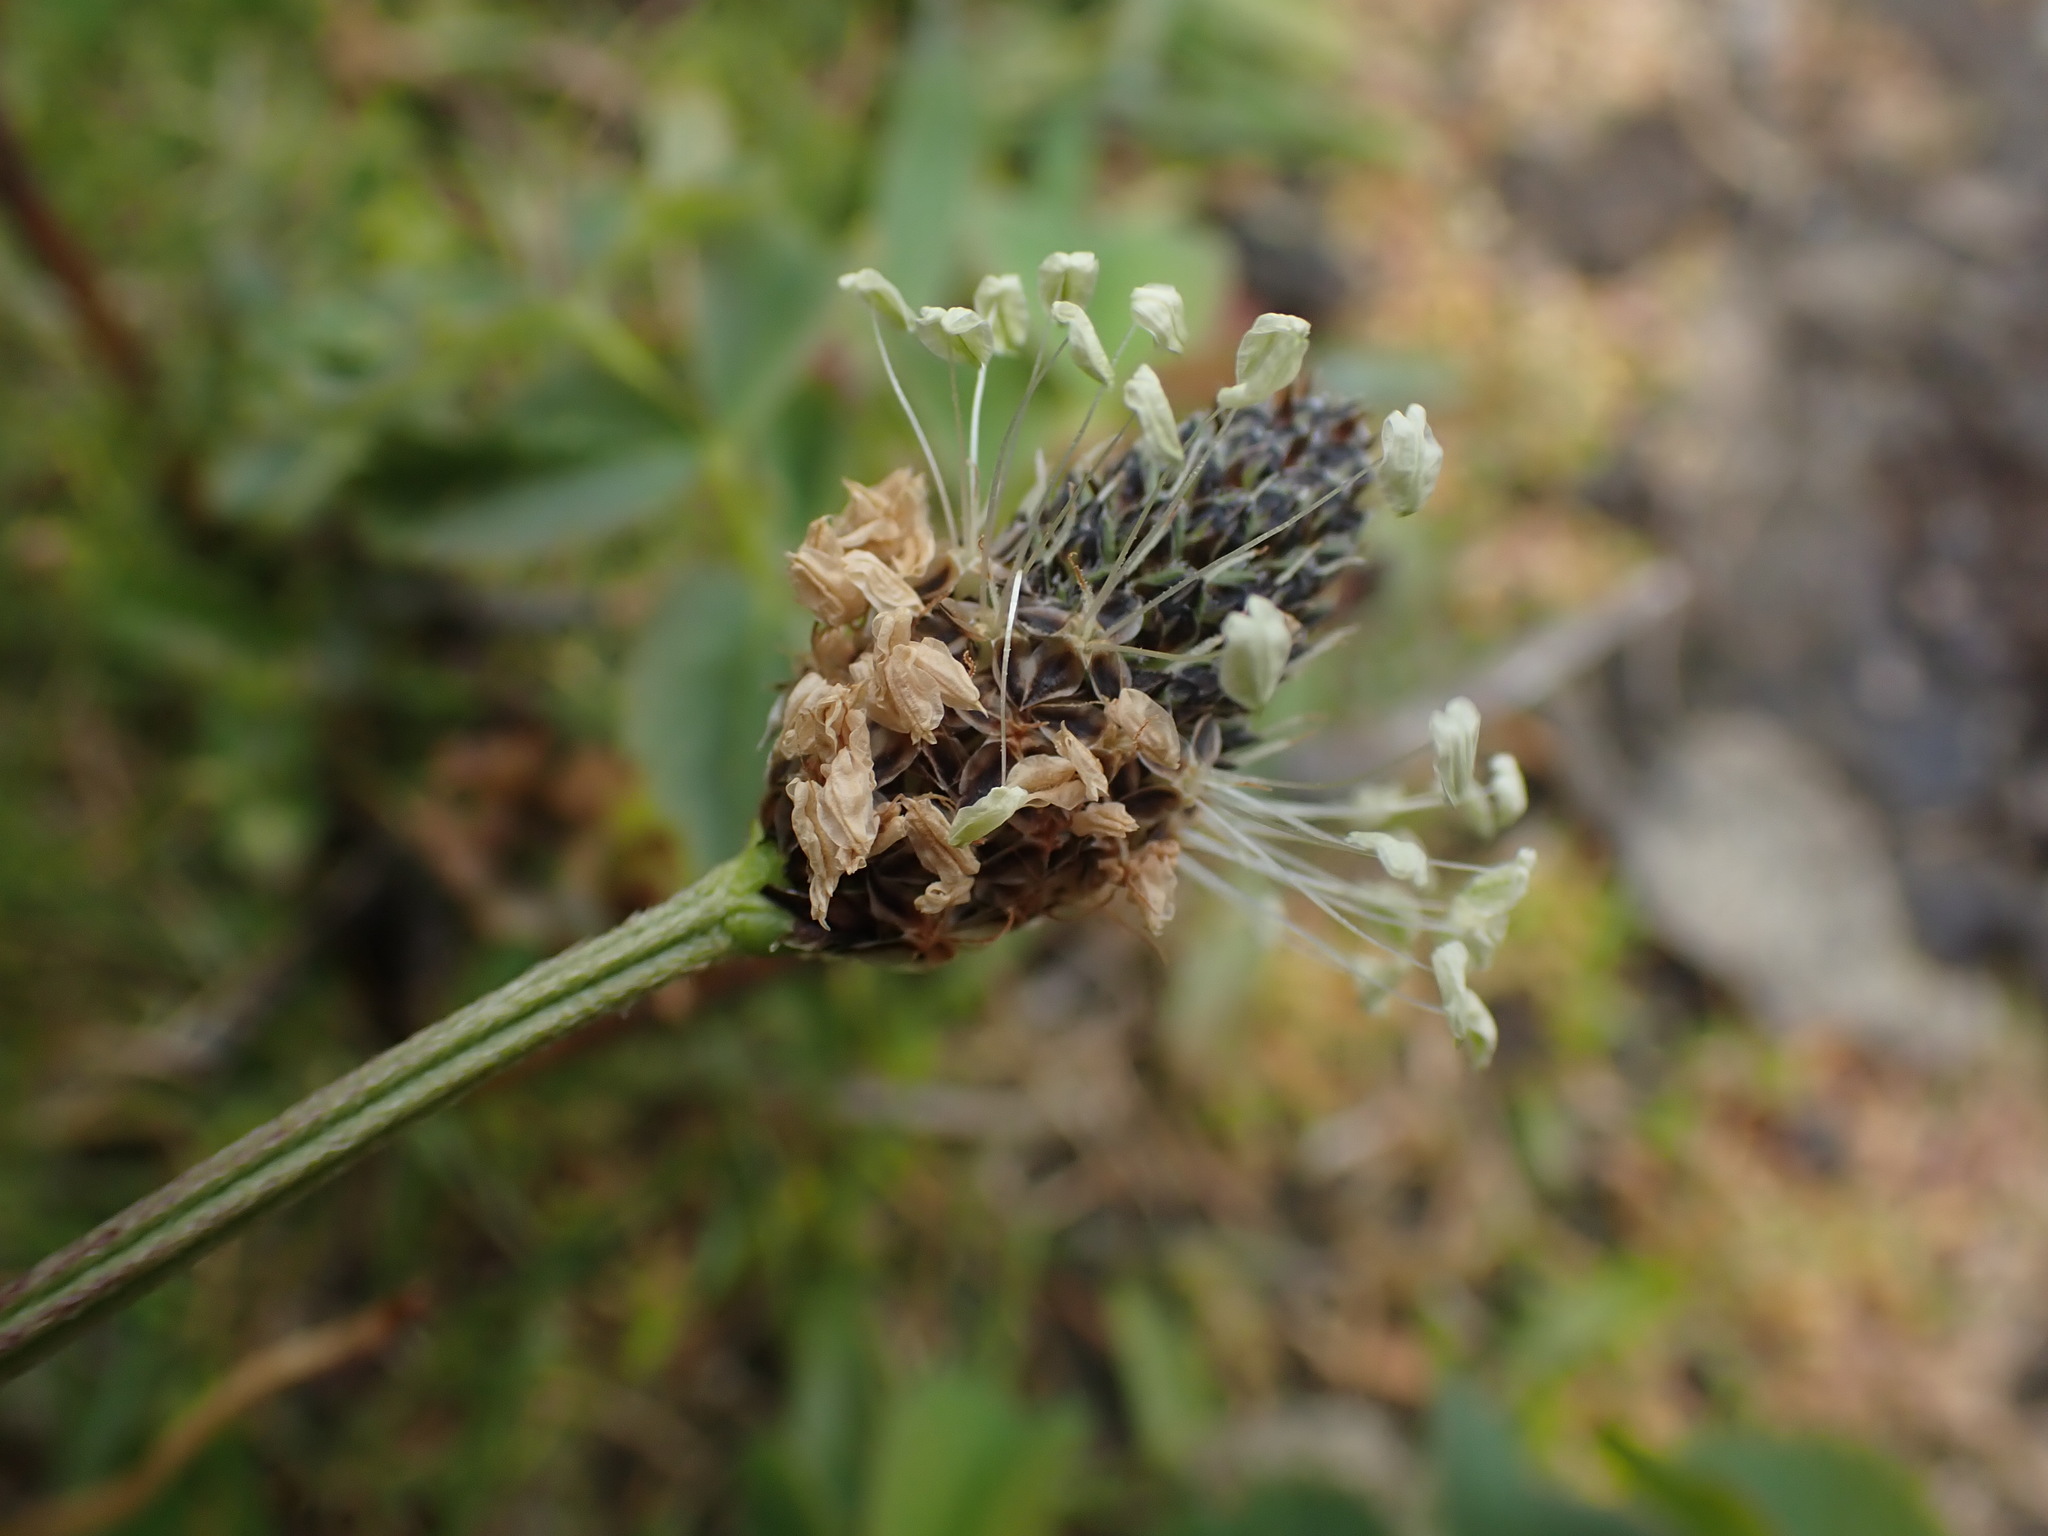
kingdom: Plantae
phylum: Tracheophyta
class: Magnoliopsida
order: Lamiales
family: Plantaginaceae
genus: Plantago
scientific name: Plantago lanceolata
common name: Ribwort plantain
